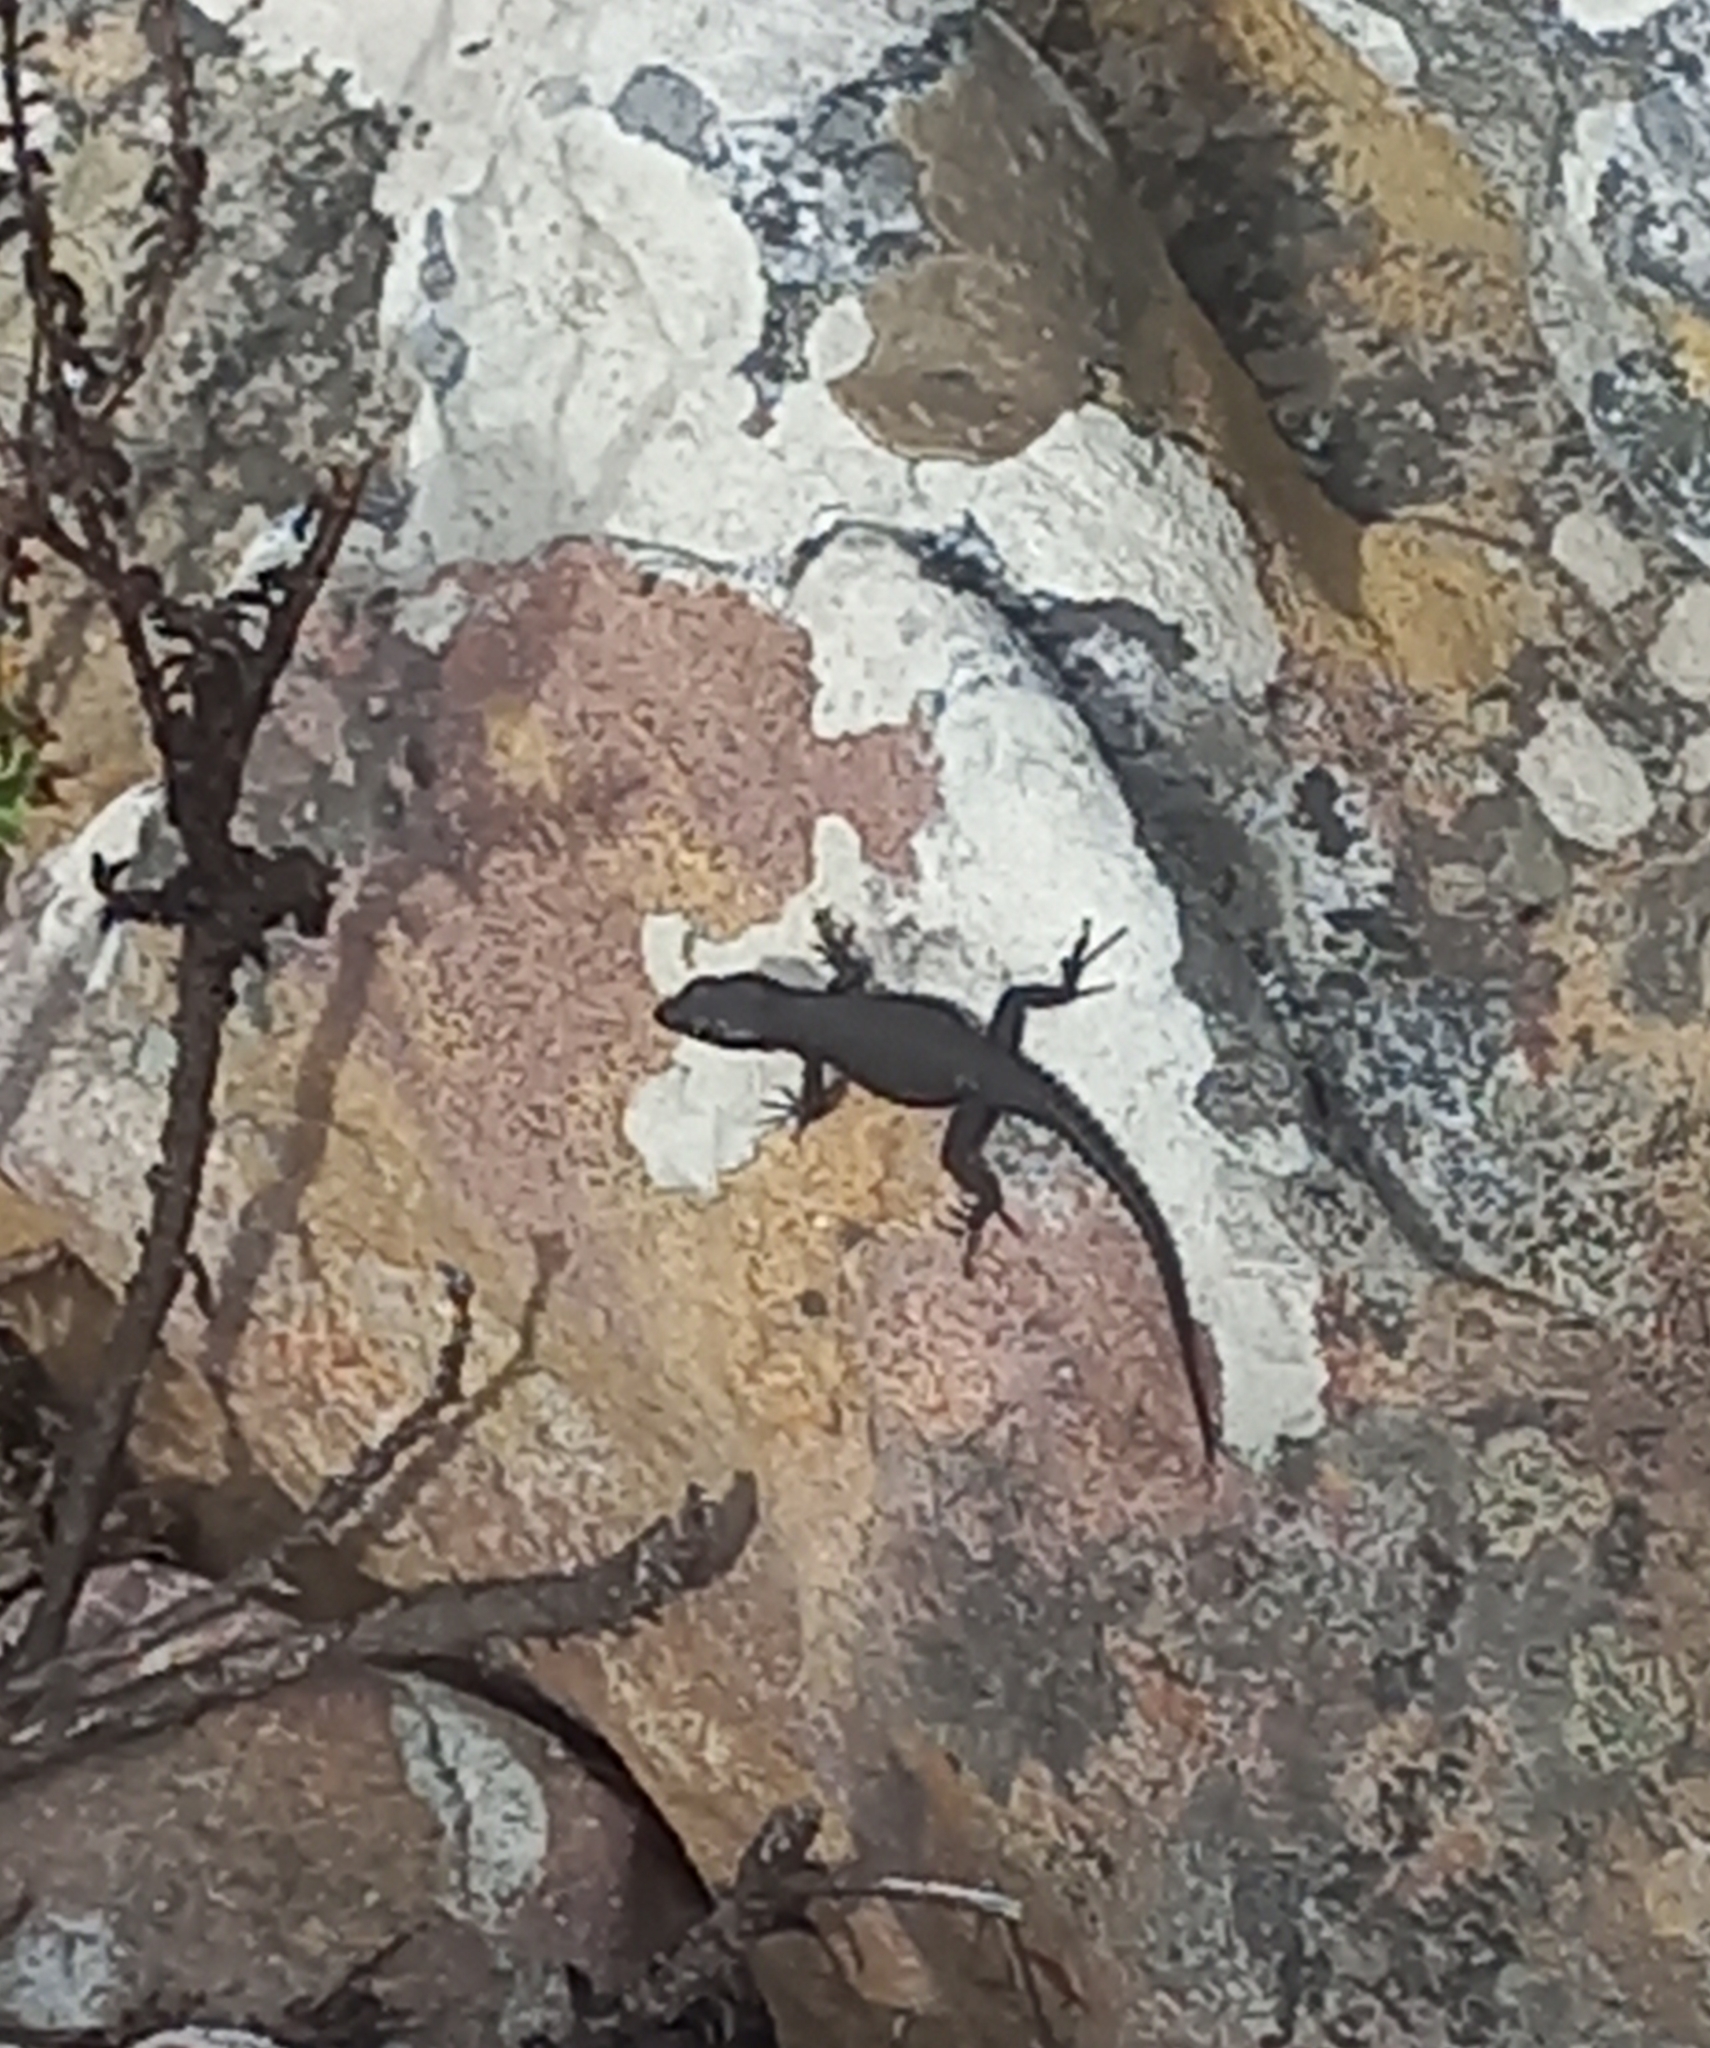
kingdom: Animalia
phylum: Chordata
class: Squamata
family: Cordylidae
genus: Cordylus
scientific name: Cordylus niger
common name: Black girdled lizard
